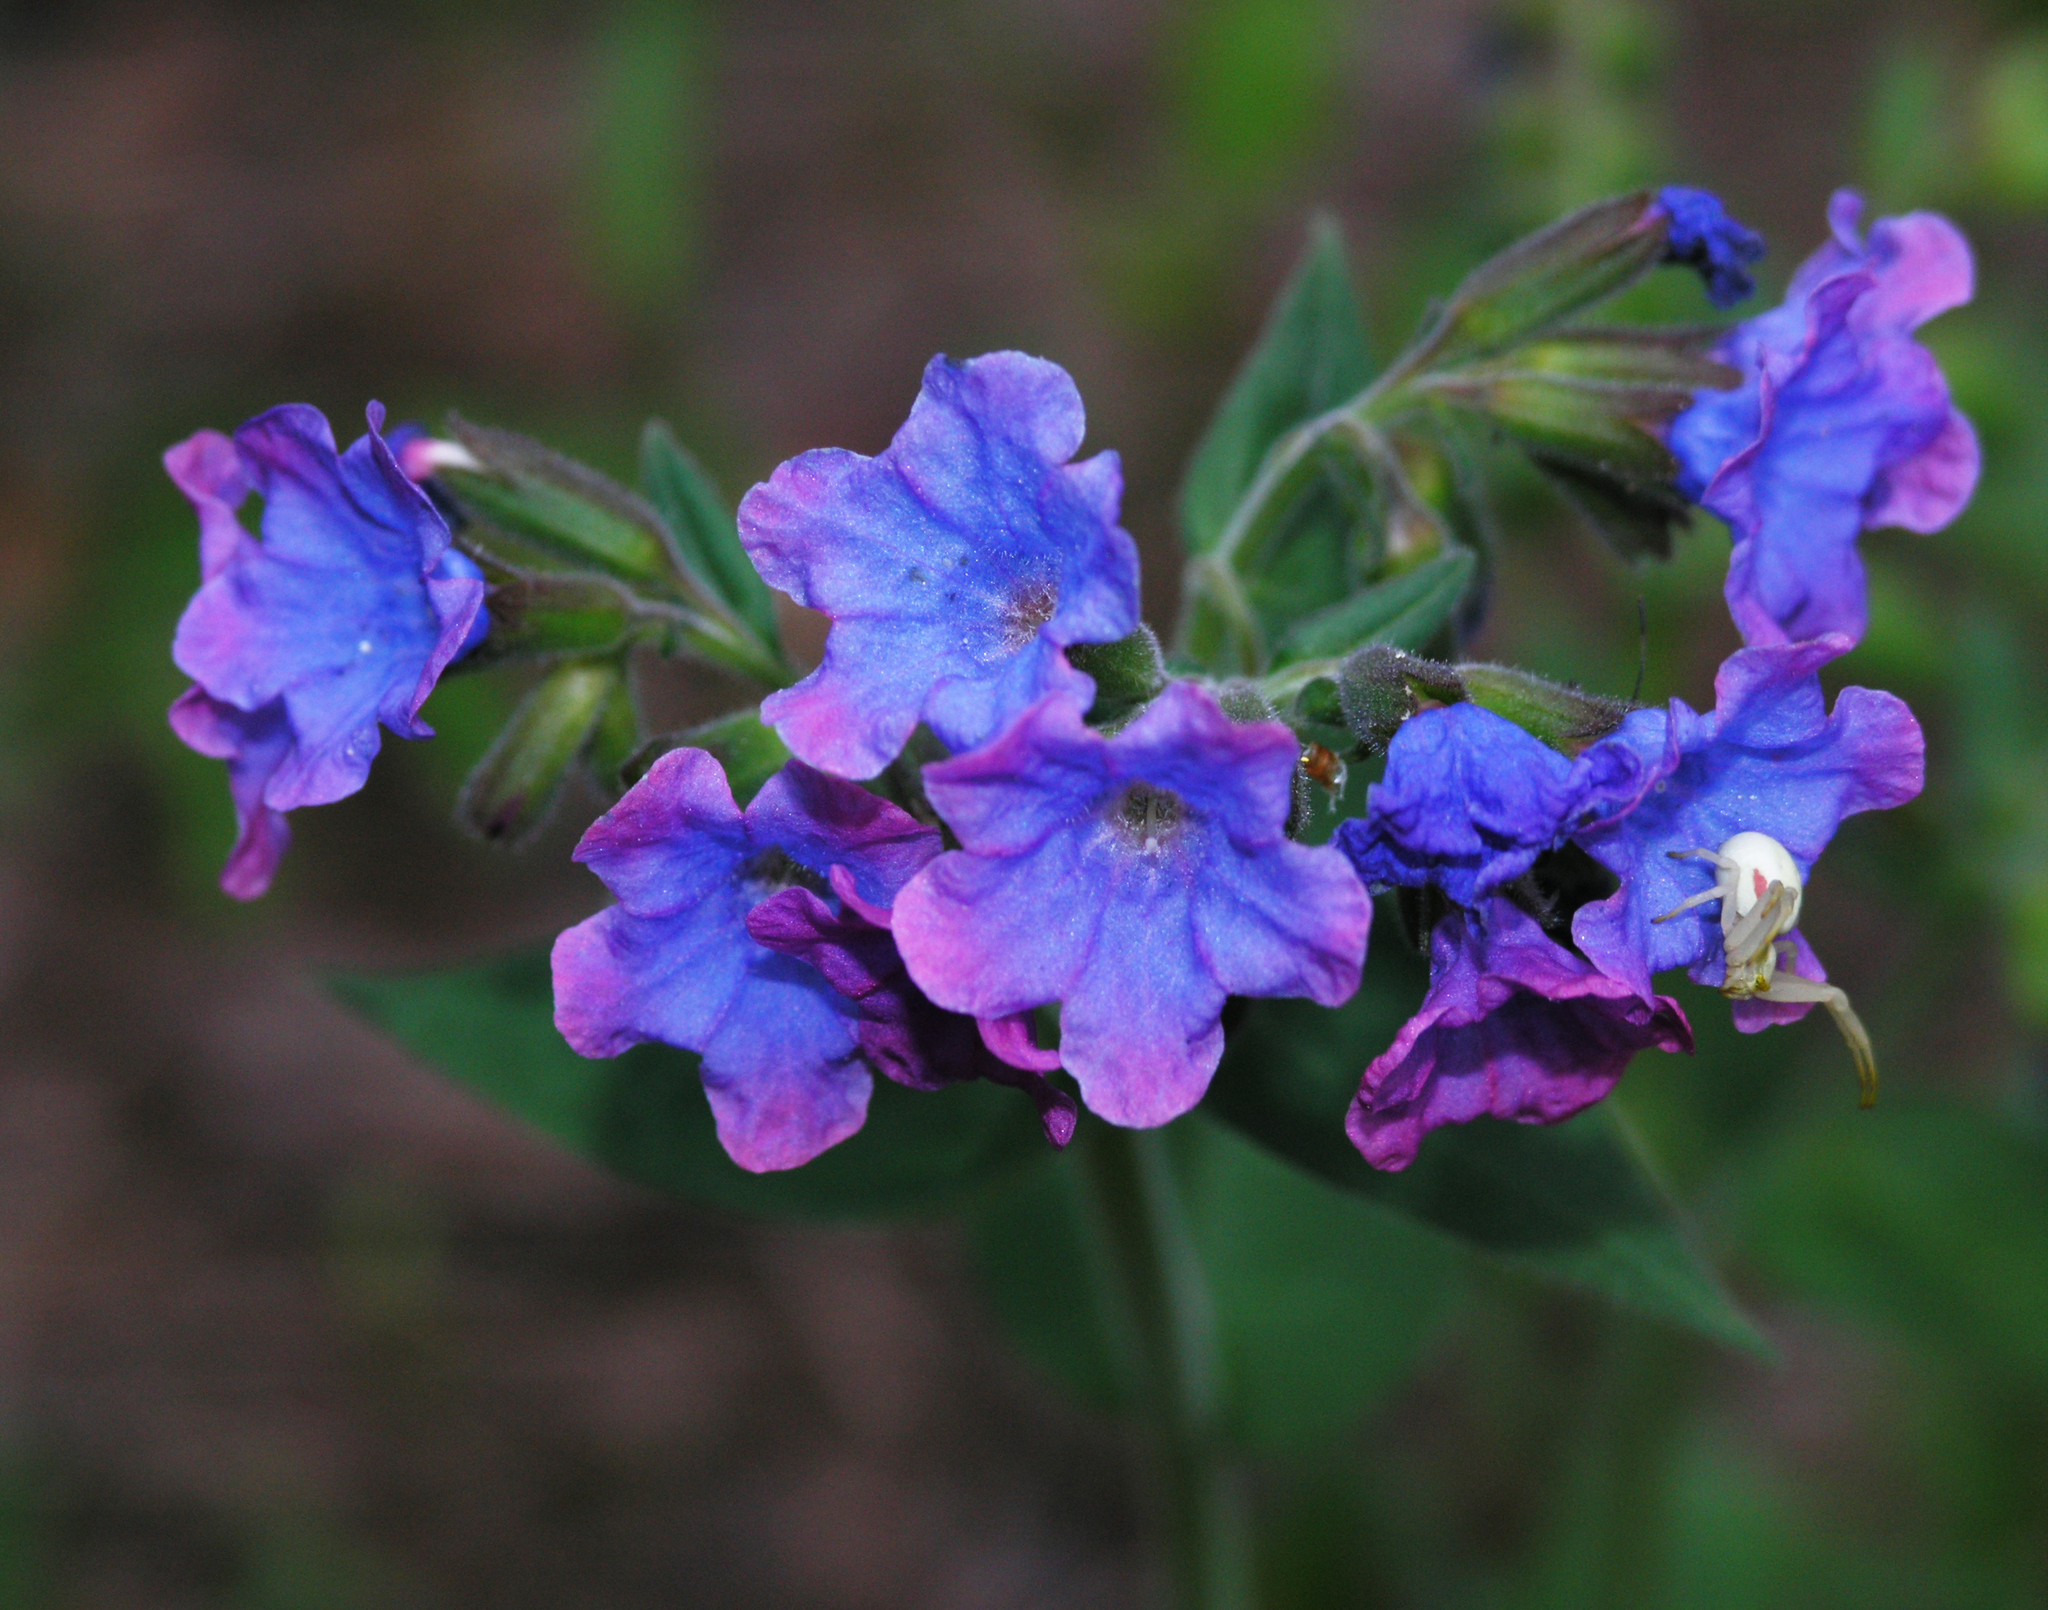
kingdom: Plantae
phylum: Tracheophyta
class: Magnoliopsida
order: Boraginales
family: Boraginaceae
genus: Pulmonaria
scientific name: Pulmonaria mollis
